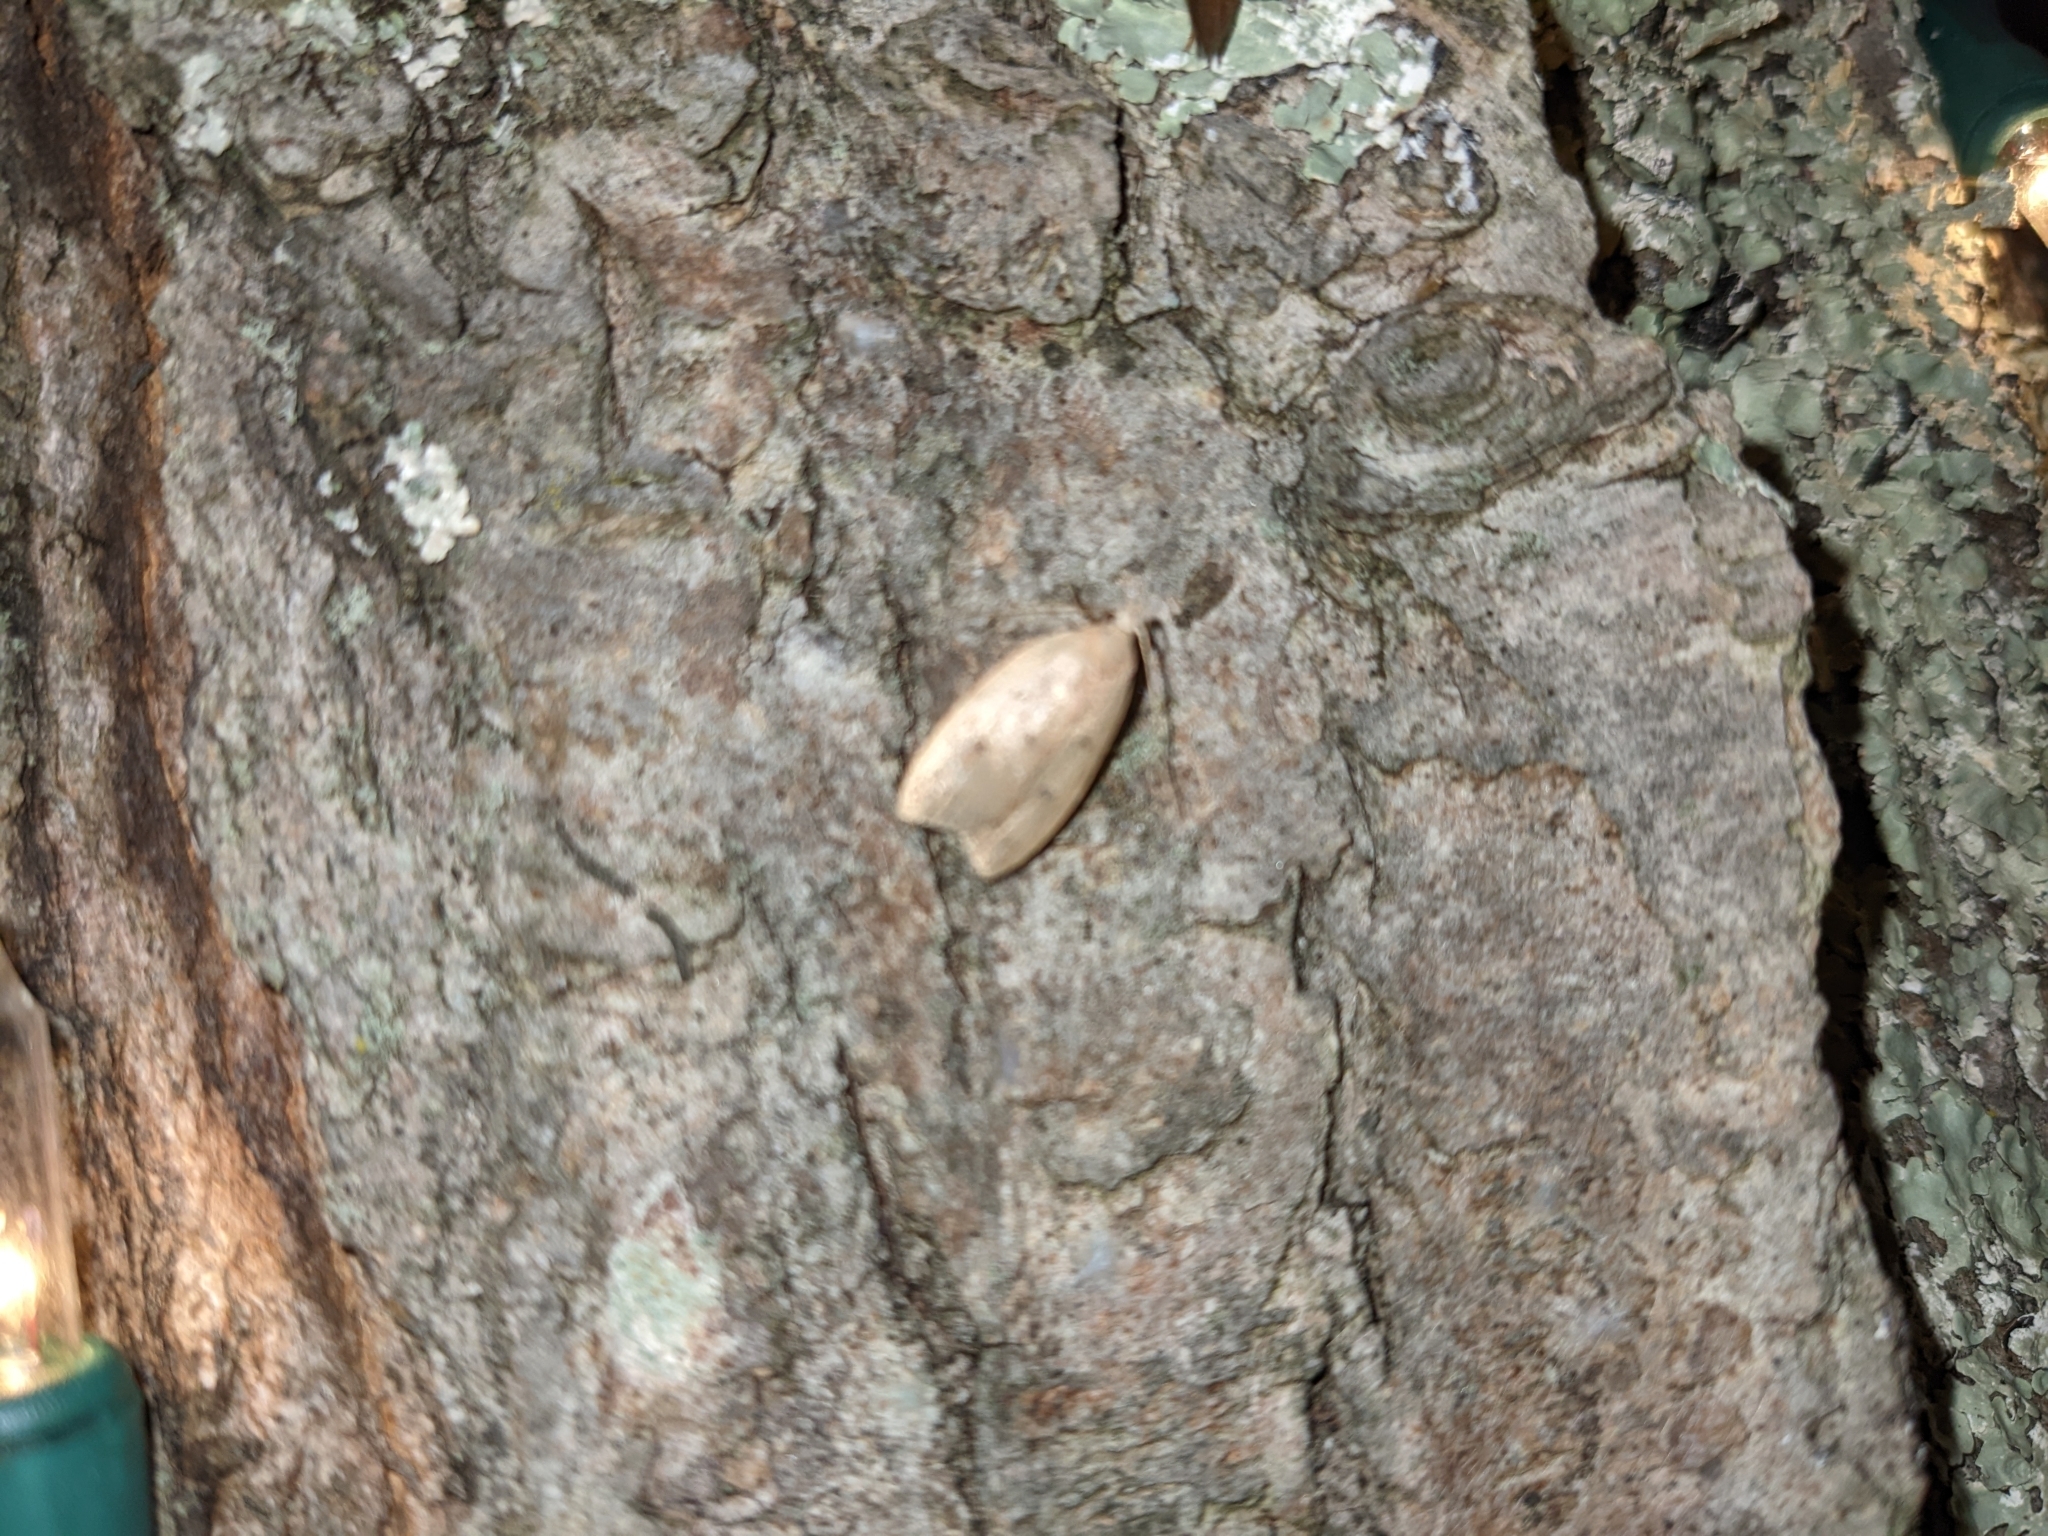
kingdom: Animalia
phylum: Arthropoda
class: Insecta
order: Lepidoptera
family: Peleopodidae
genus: Machimia
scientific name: Machimia tentoriferella
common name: Gold-striped leaftier moth
